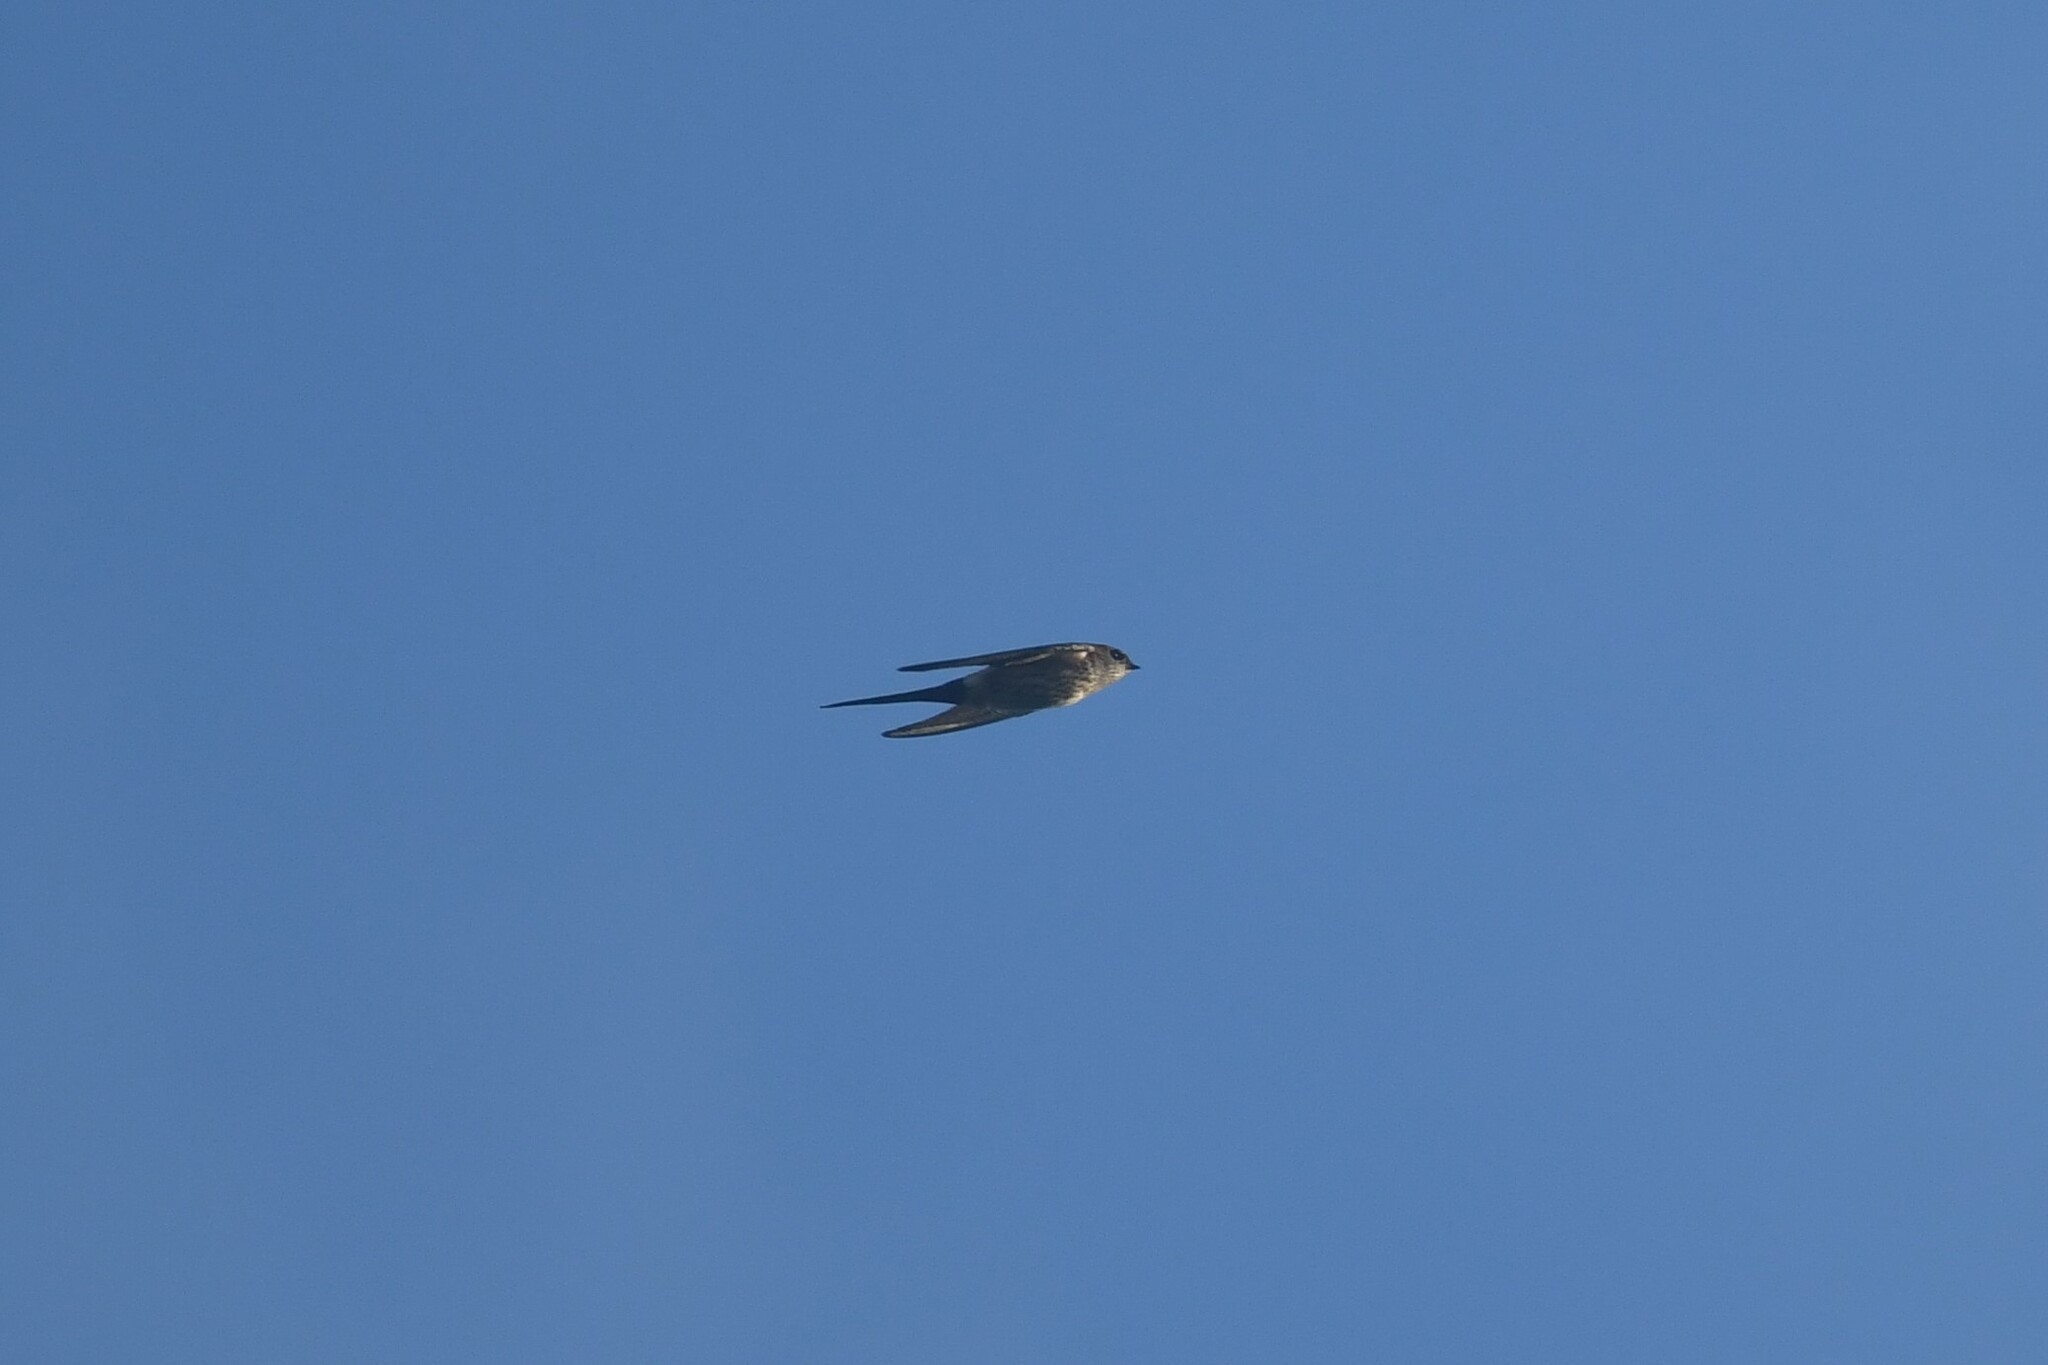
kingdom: Animalia
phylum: Chordata
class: Aves
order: Passeriformes
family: Hirundinidae
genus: Cecropis
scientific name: Cecropis daurica
